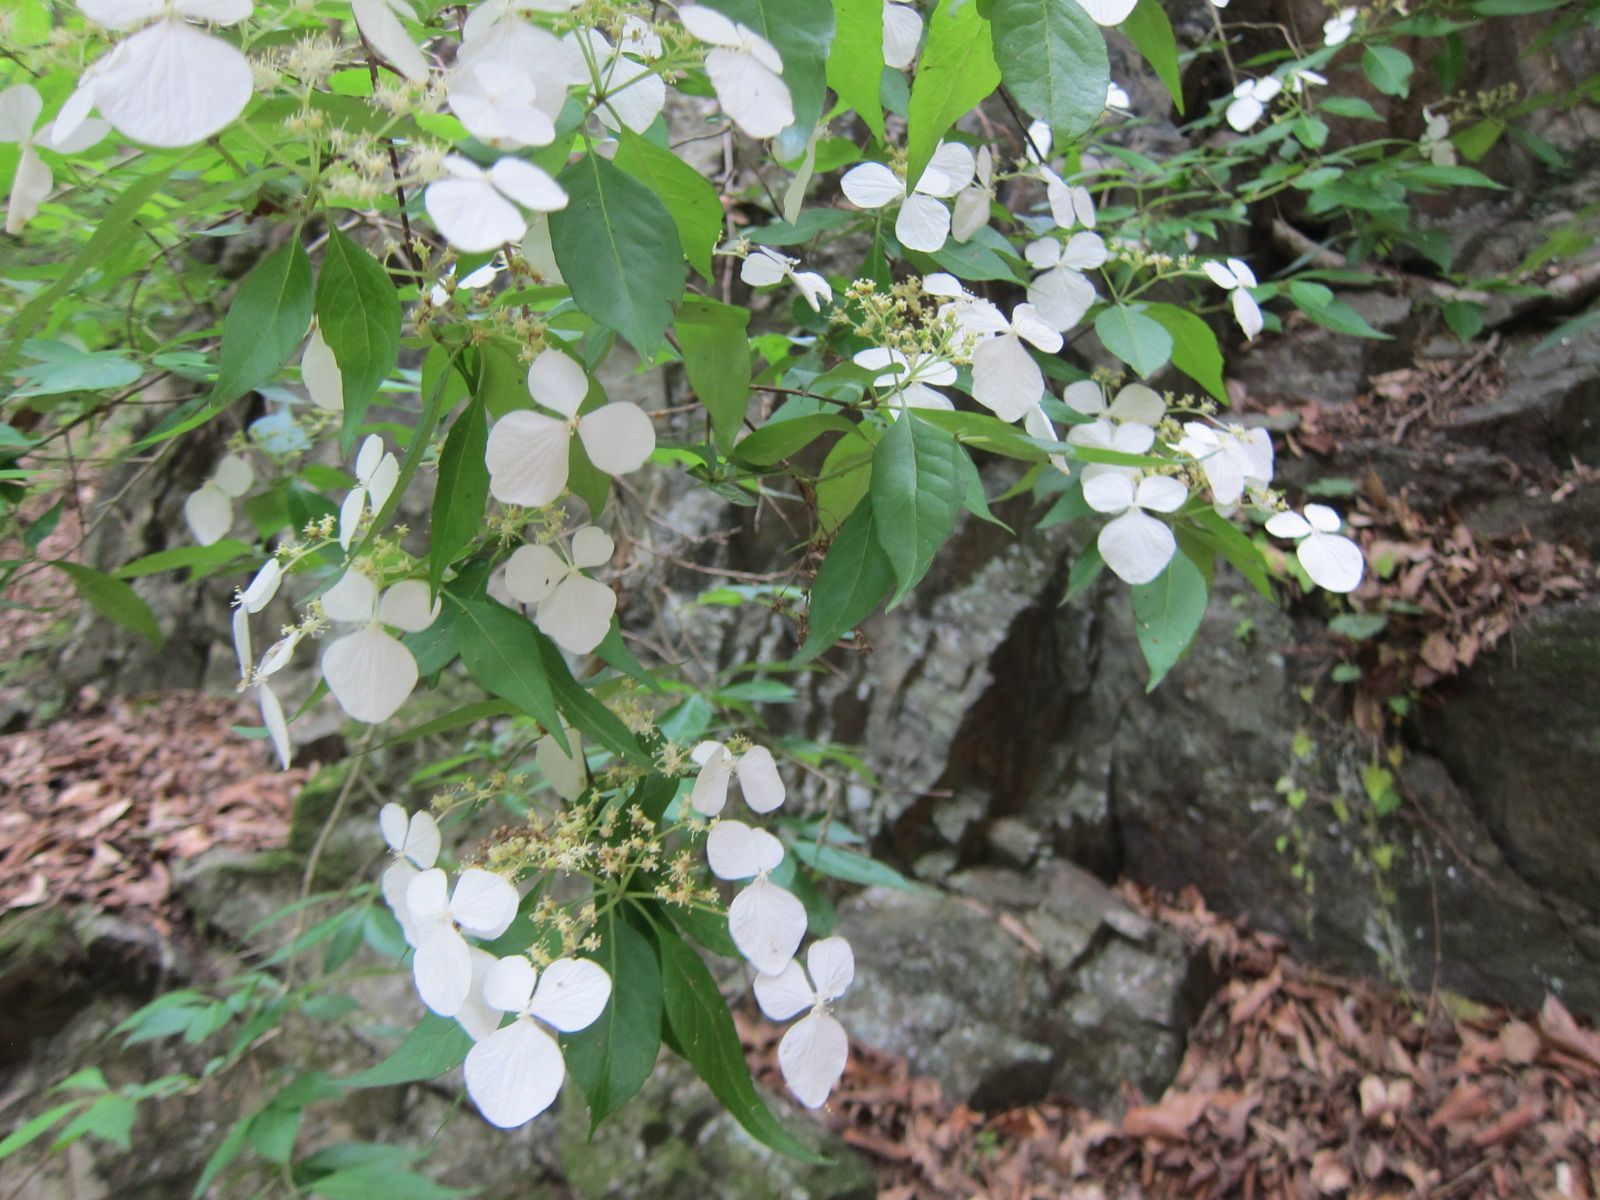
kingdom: Plantae
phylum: Tracheophyta
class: Magnoliopsida
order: Cornales
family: Hydrangeaceae
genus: Hydrangea
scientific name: Hydrangea scandens
